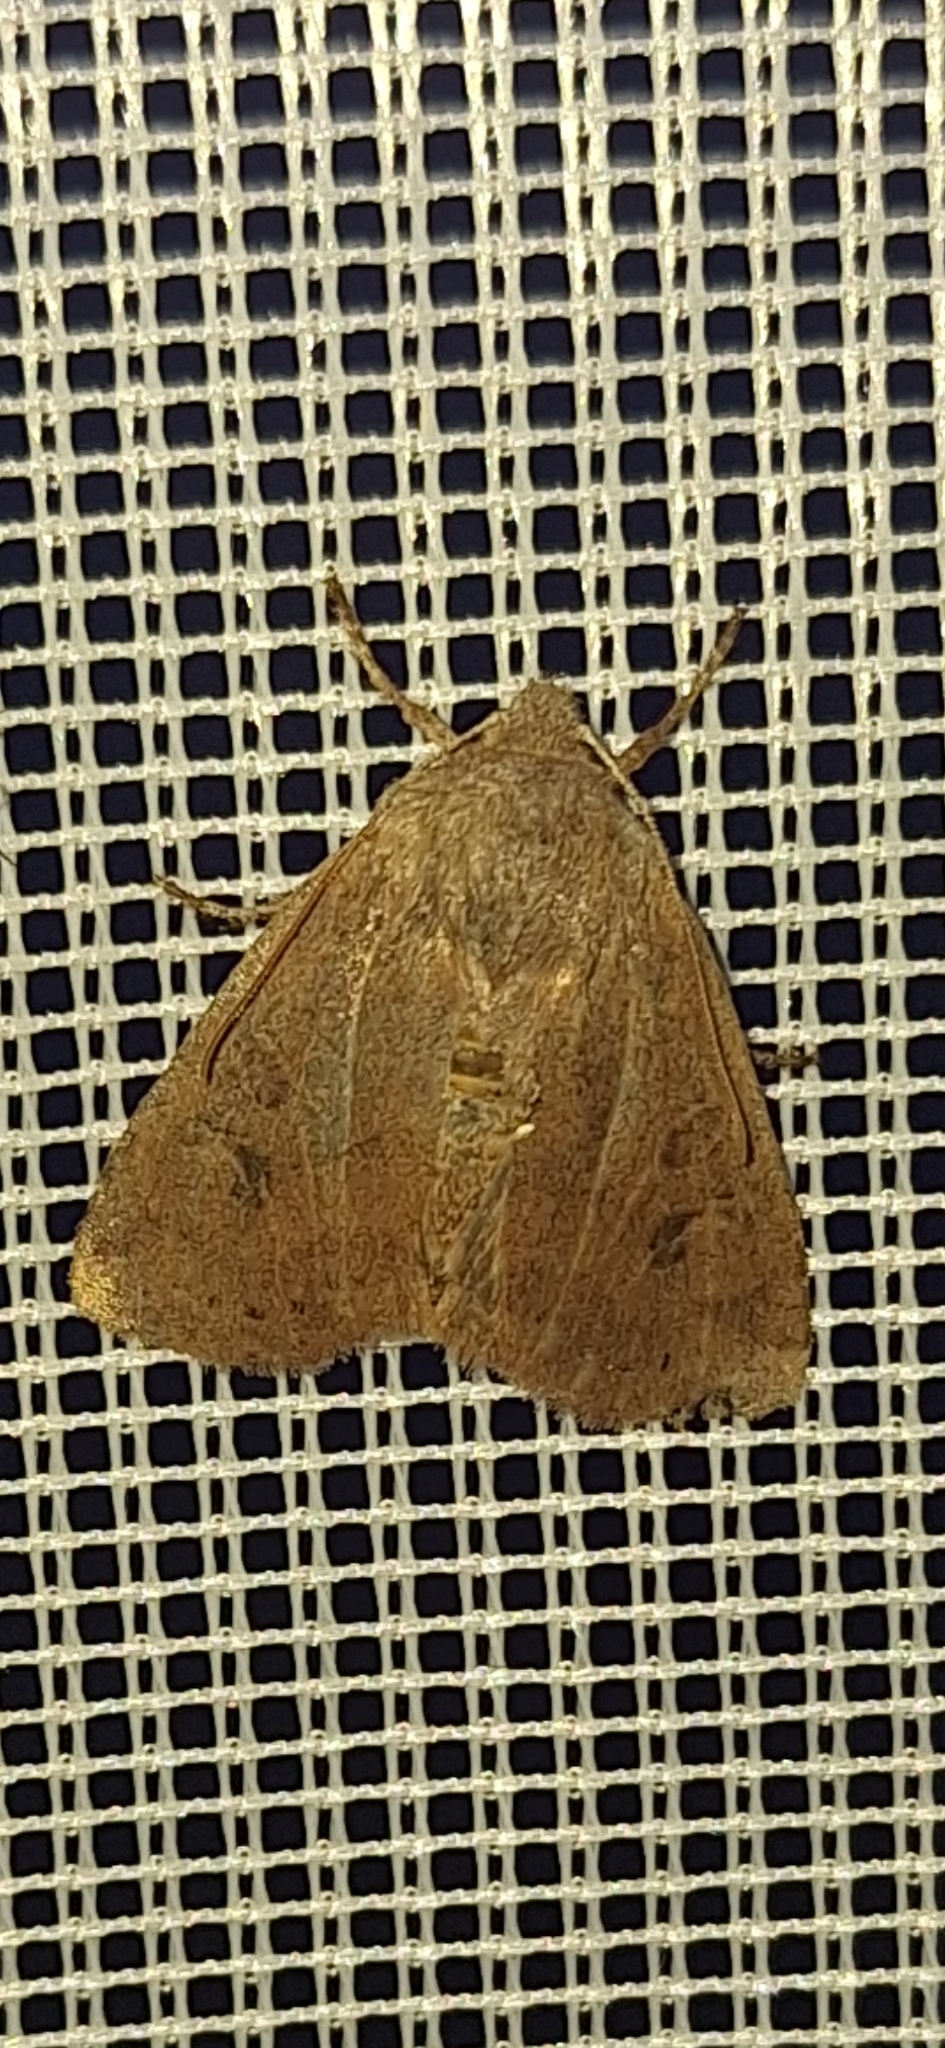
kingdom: Animalia
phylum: Arthropoda
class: Insecta
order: Lepidoptera
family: Noctuidae
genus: Conistra
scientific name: Conistra vaccinii
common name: Chestnut
